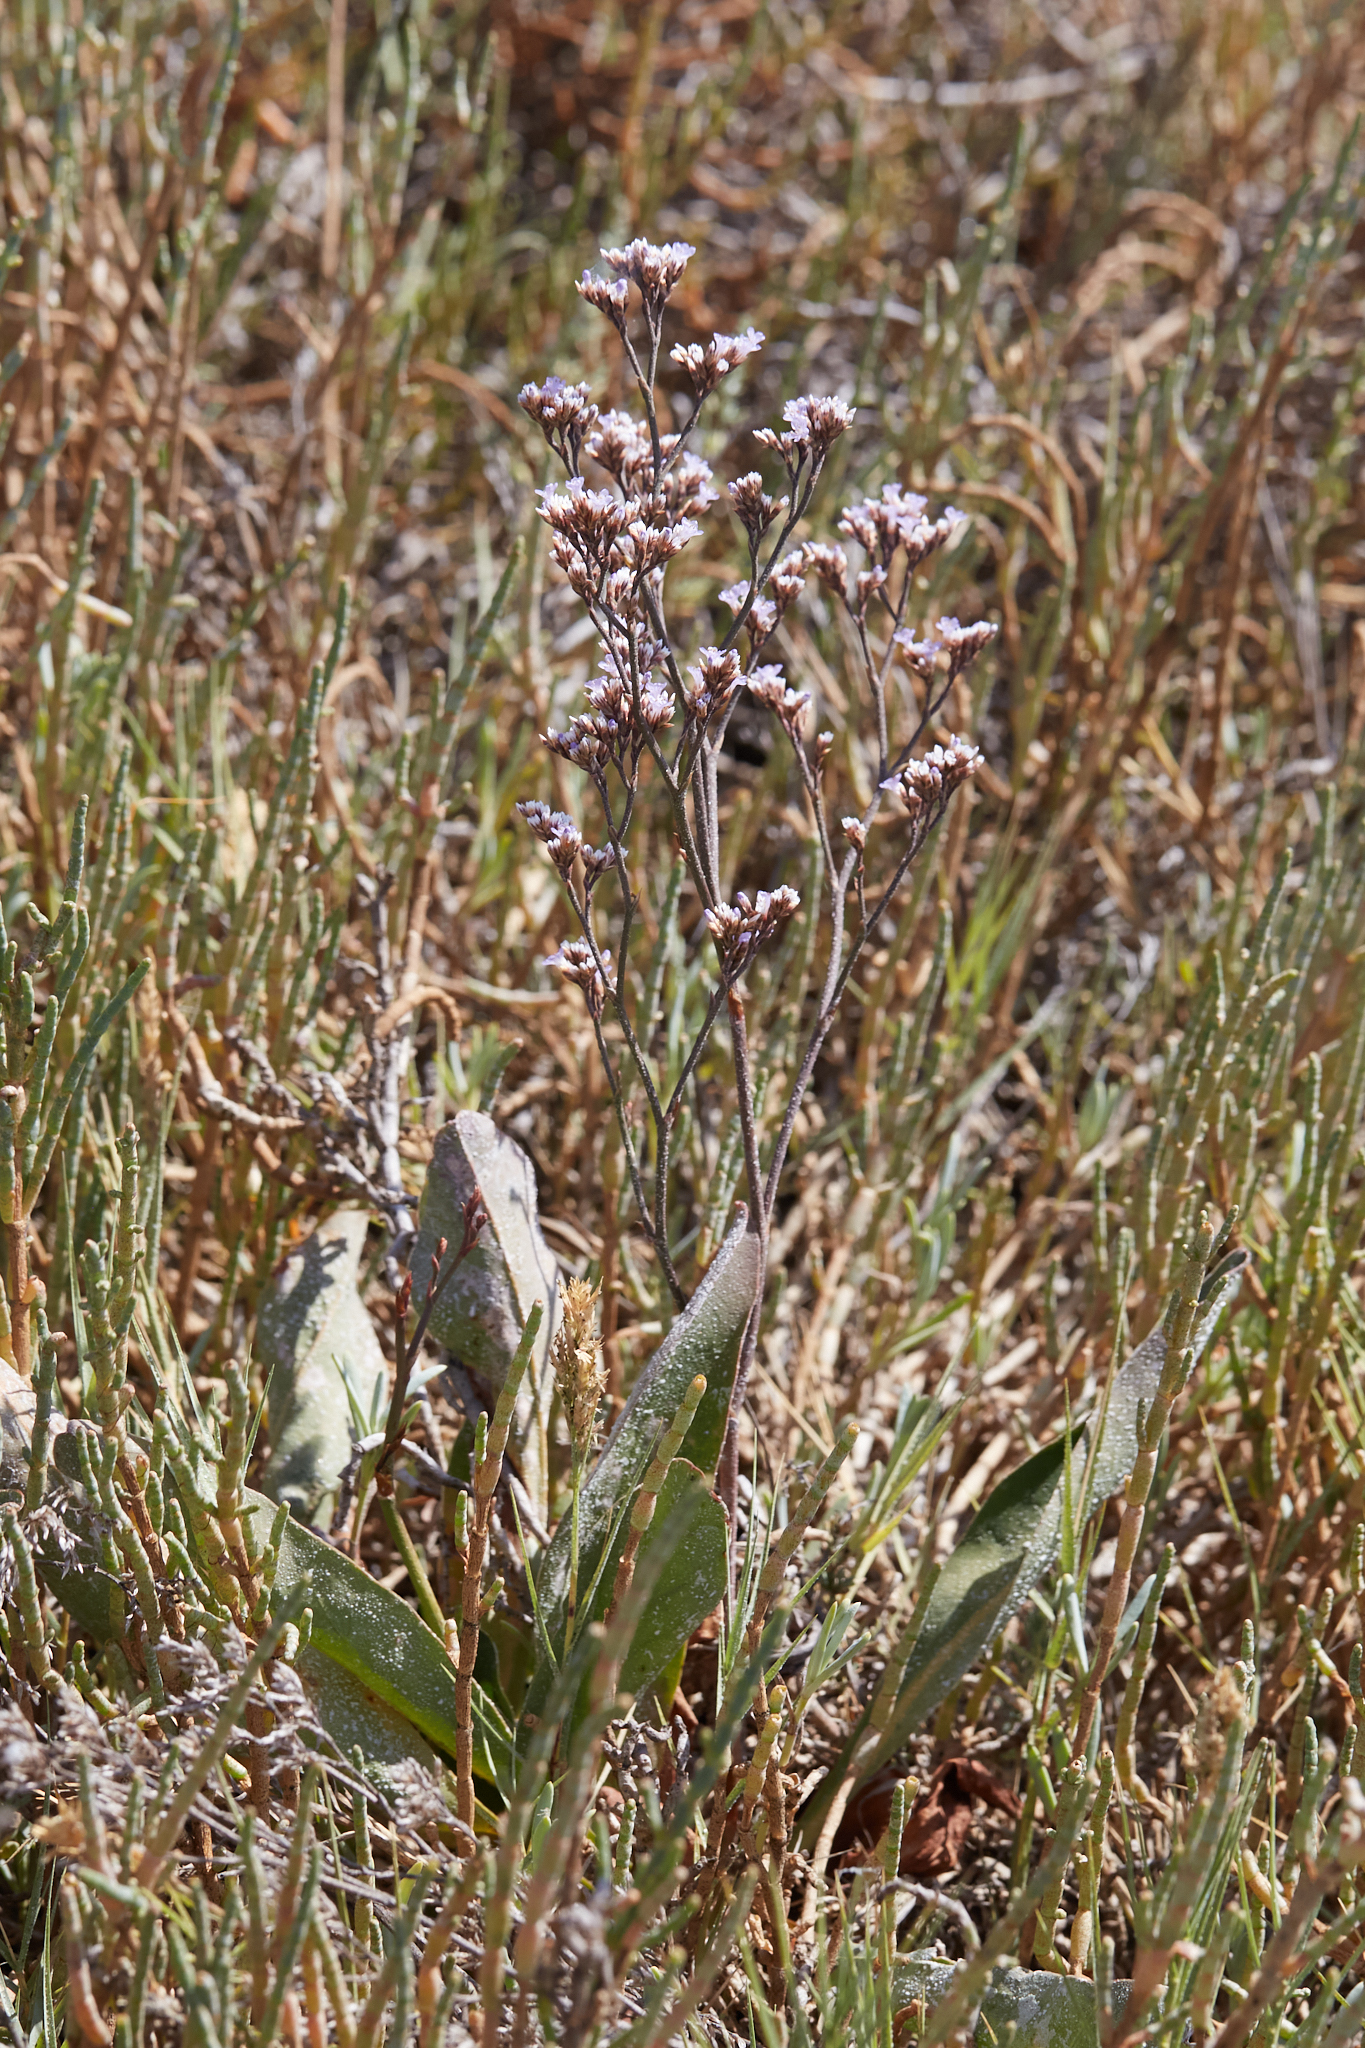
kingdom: Plantae
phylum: Tracheophyta
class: Magnoliopsida
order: Caryophyllales
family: Plumbaginaceae
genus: Limonium
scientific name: Limonium californicum
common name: Marsh-rosemary
